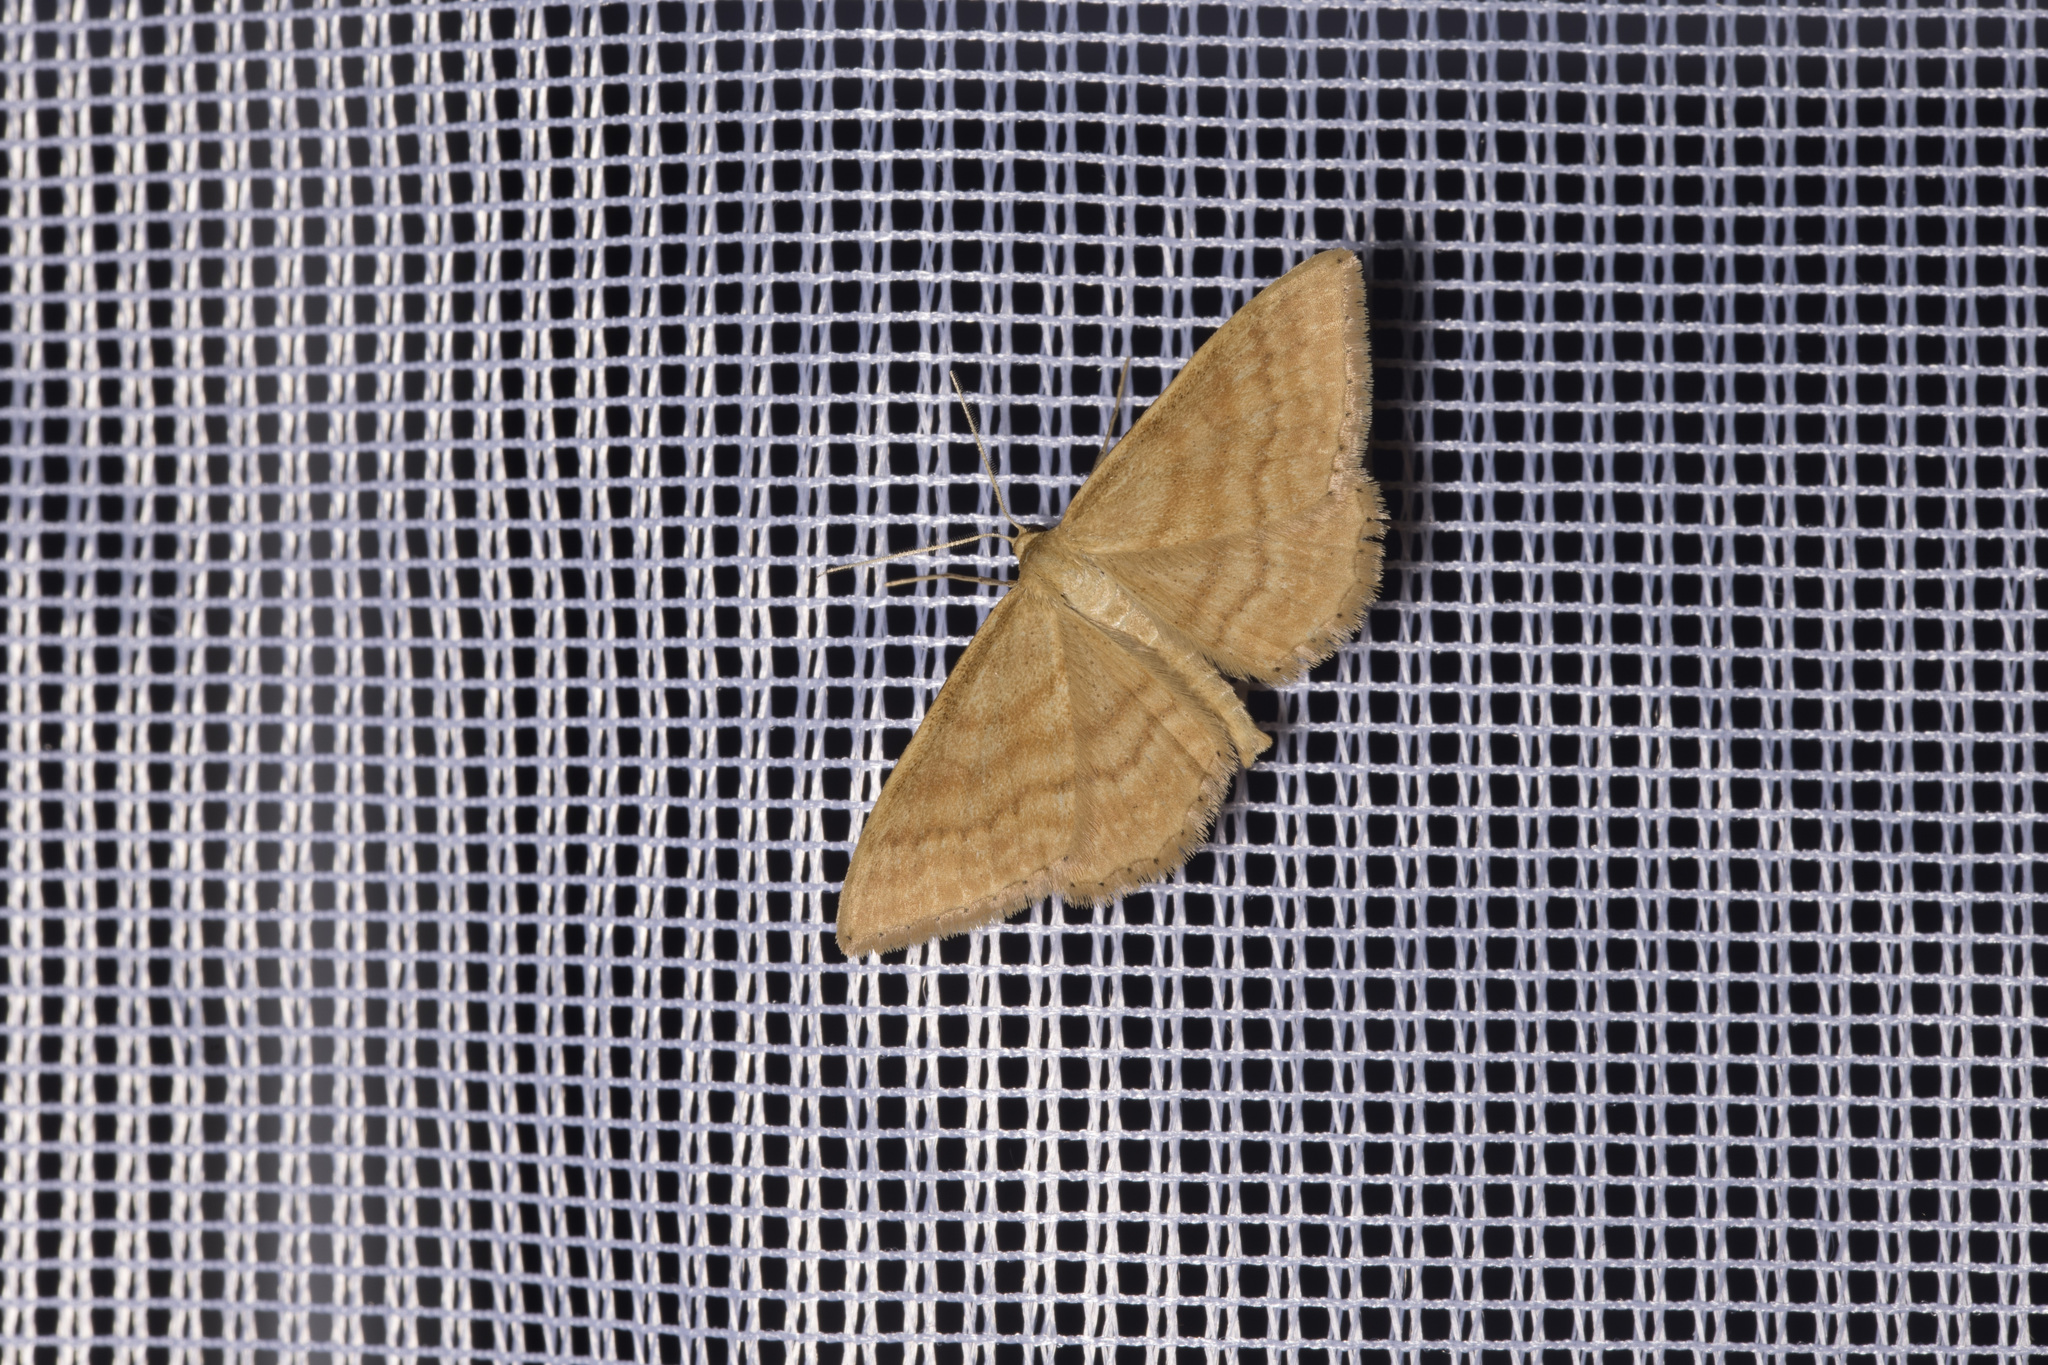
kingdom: Animalia
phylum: Arthropoda
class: Insecta
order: Lepidoptera
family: Geometridae
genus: Idaea
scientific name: Idaea ochrata
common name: Bright wave
